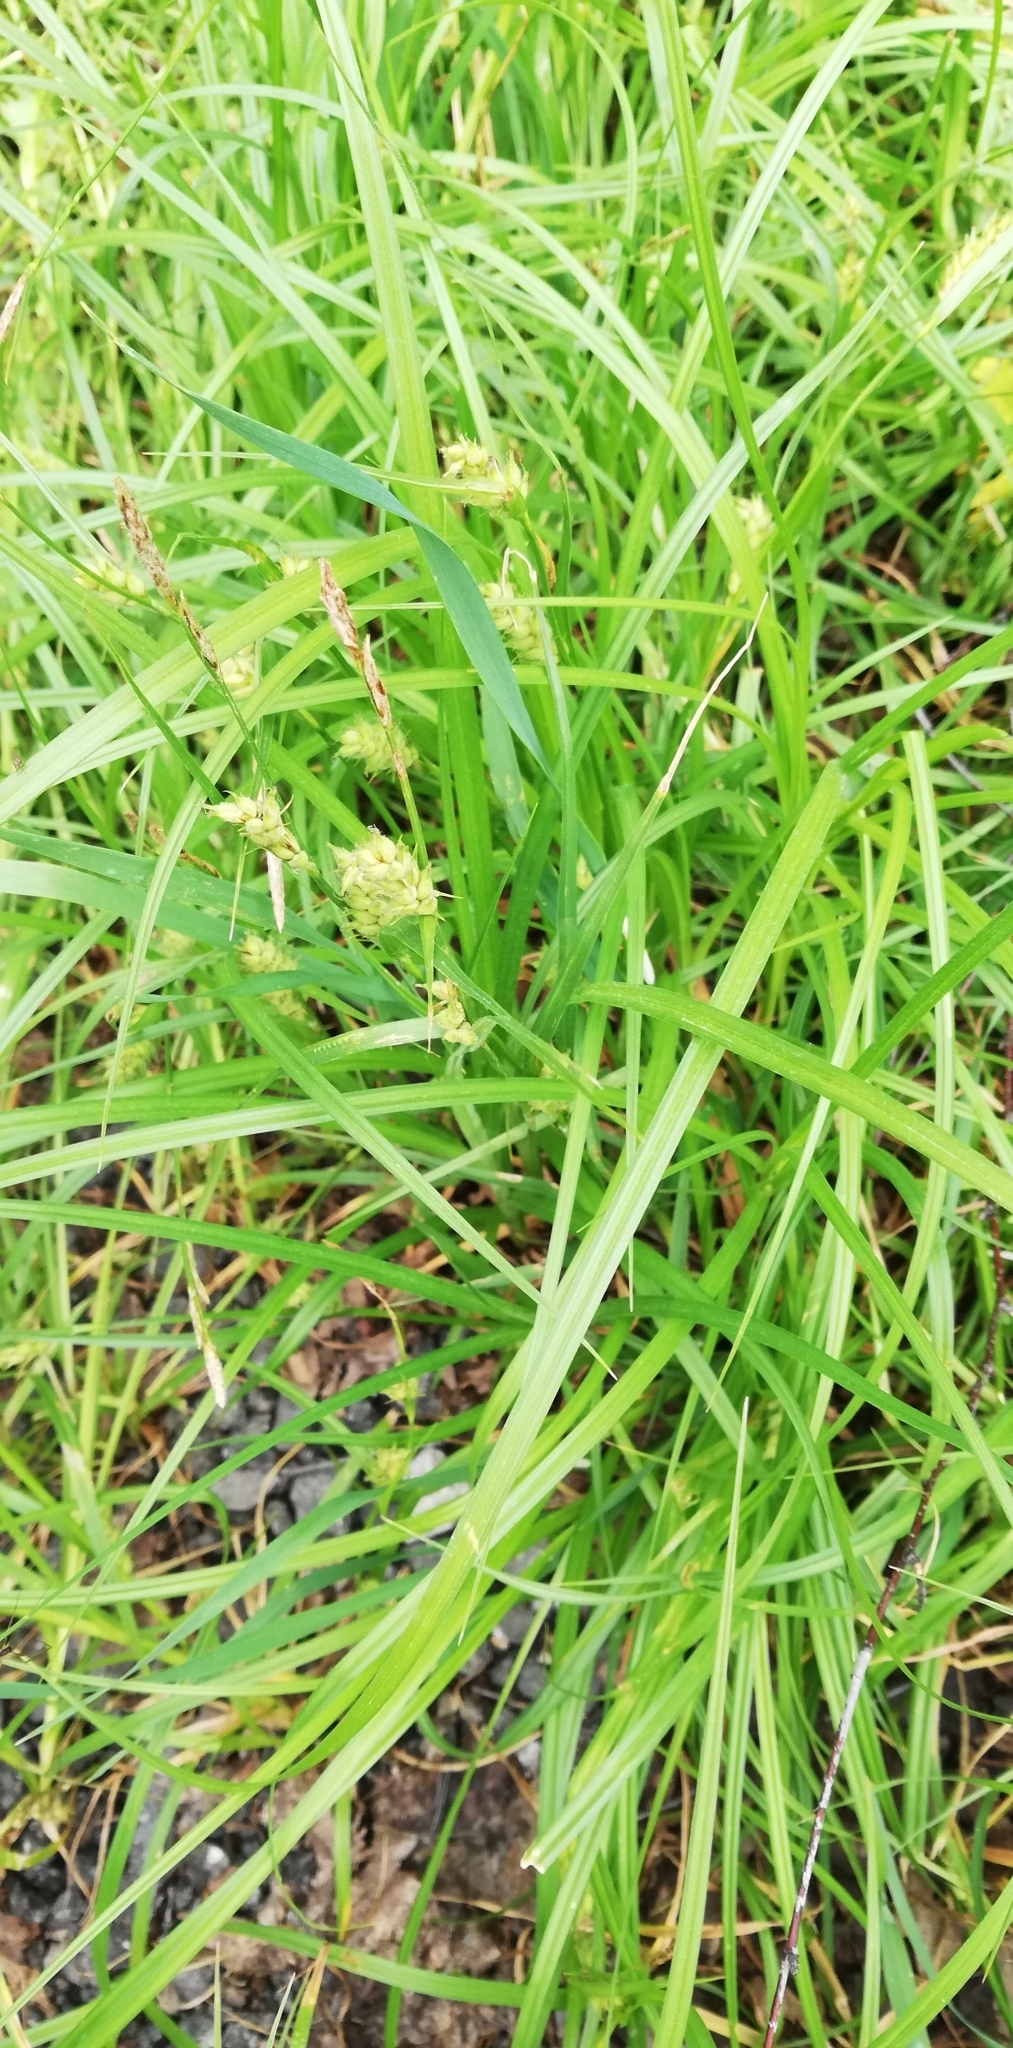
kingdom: Plantae
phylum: Tracheophyta
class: Liliopsida
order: Poales
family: Cyperaceae
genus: Carex
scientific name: Carex hirta
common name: Hairy sedge
